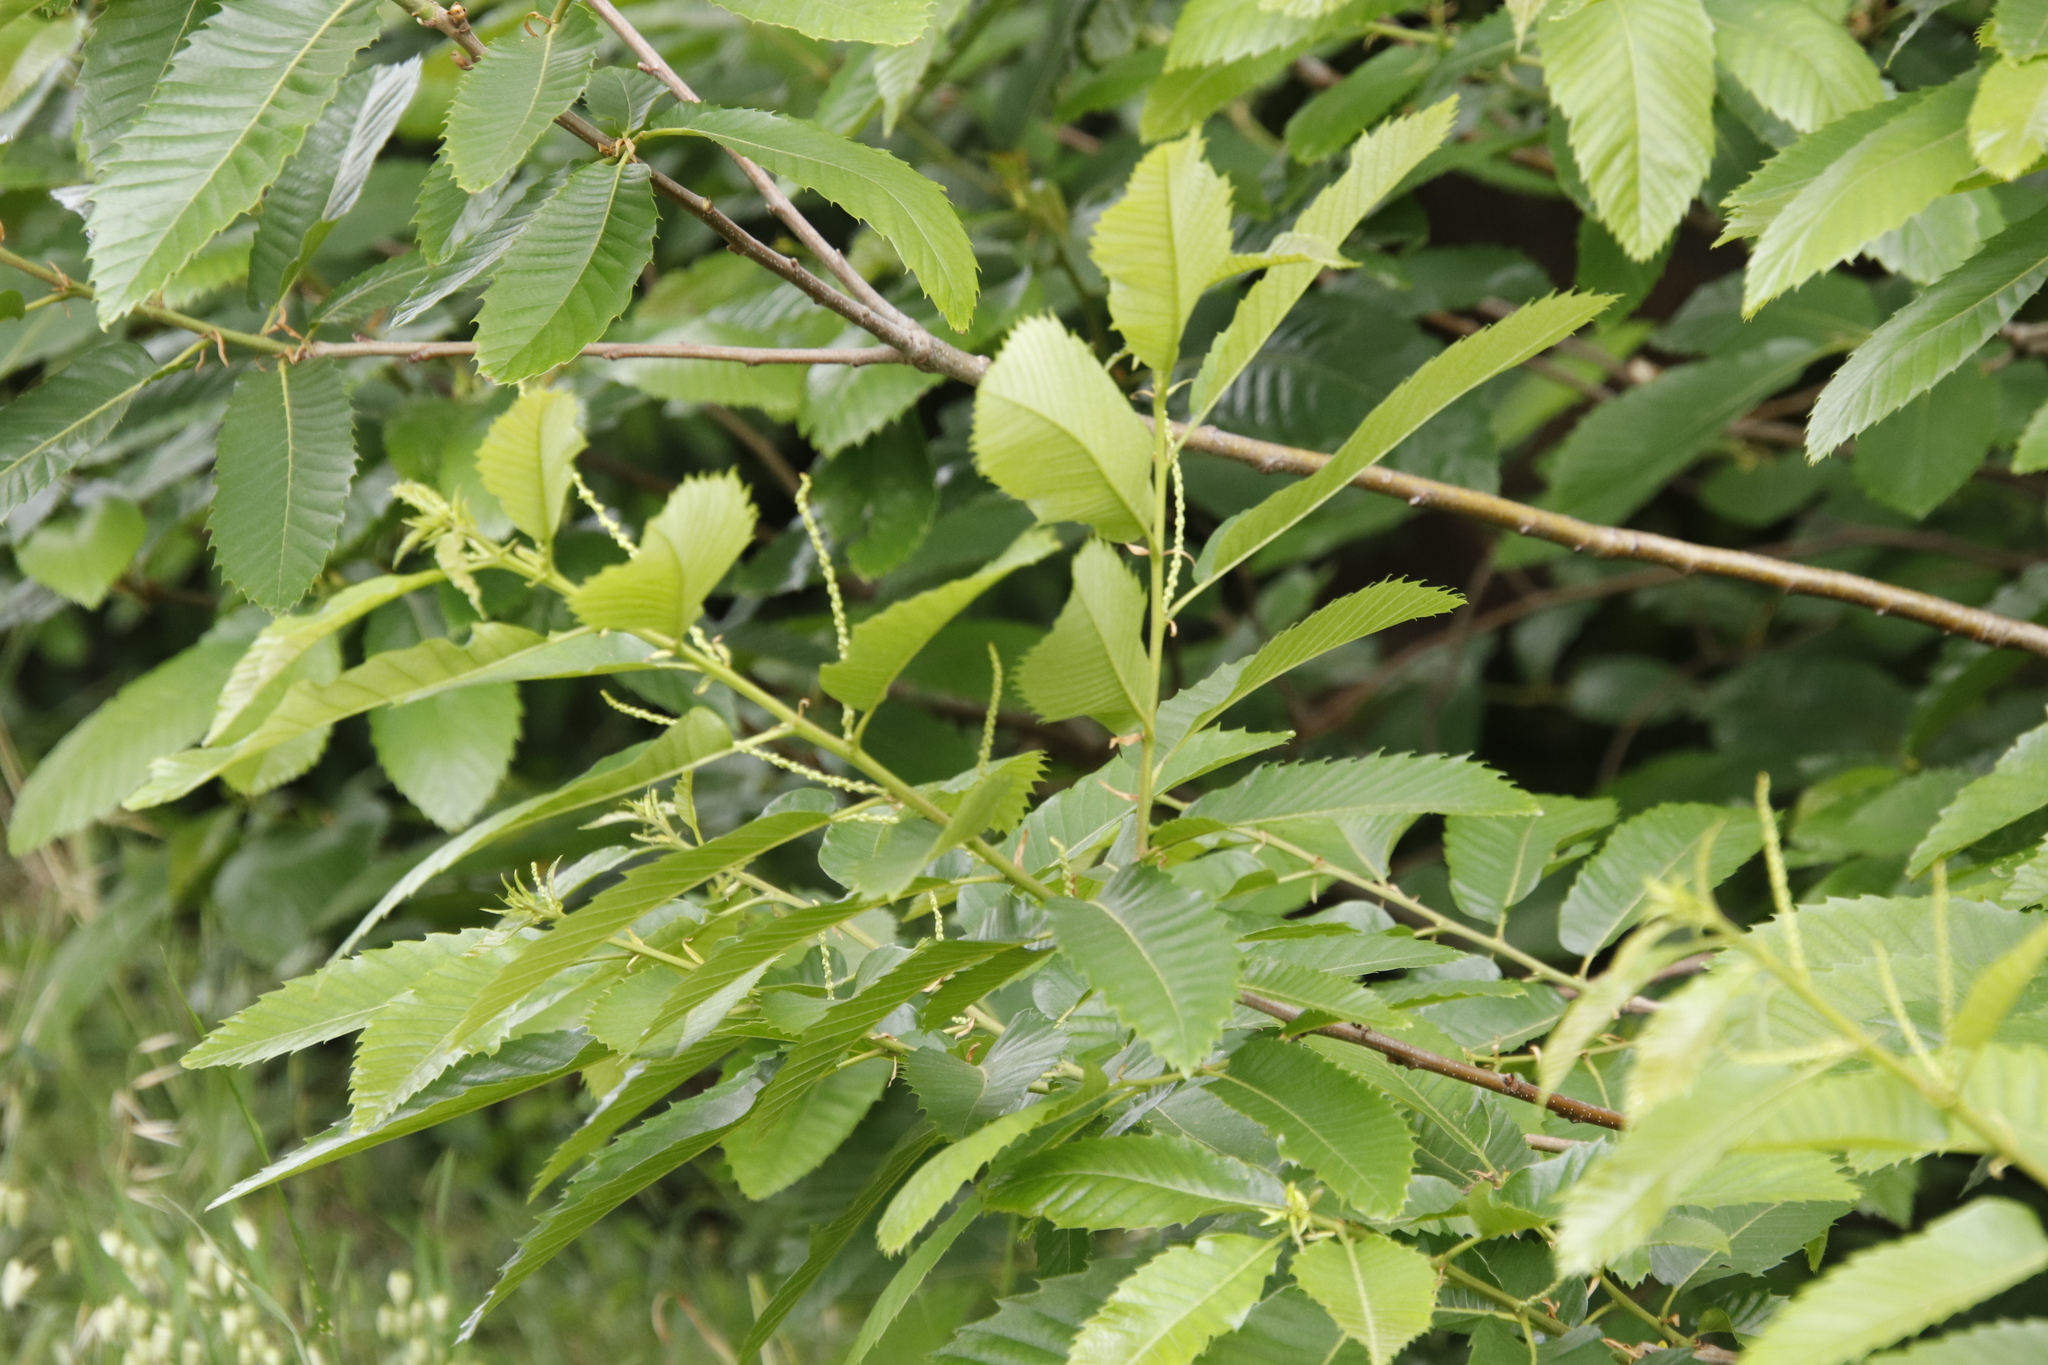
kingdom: Plantae
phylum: Tracheophyta
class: Magnoliopsida
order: Fagales
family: Fagaceae
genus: Castanea
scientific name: Castanea sativa
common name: Sweet chestnut
